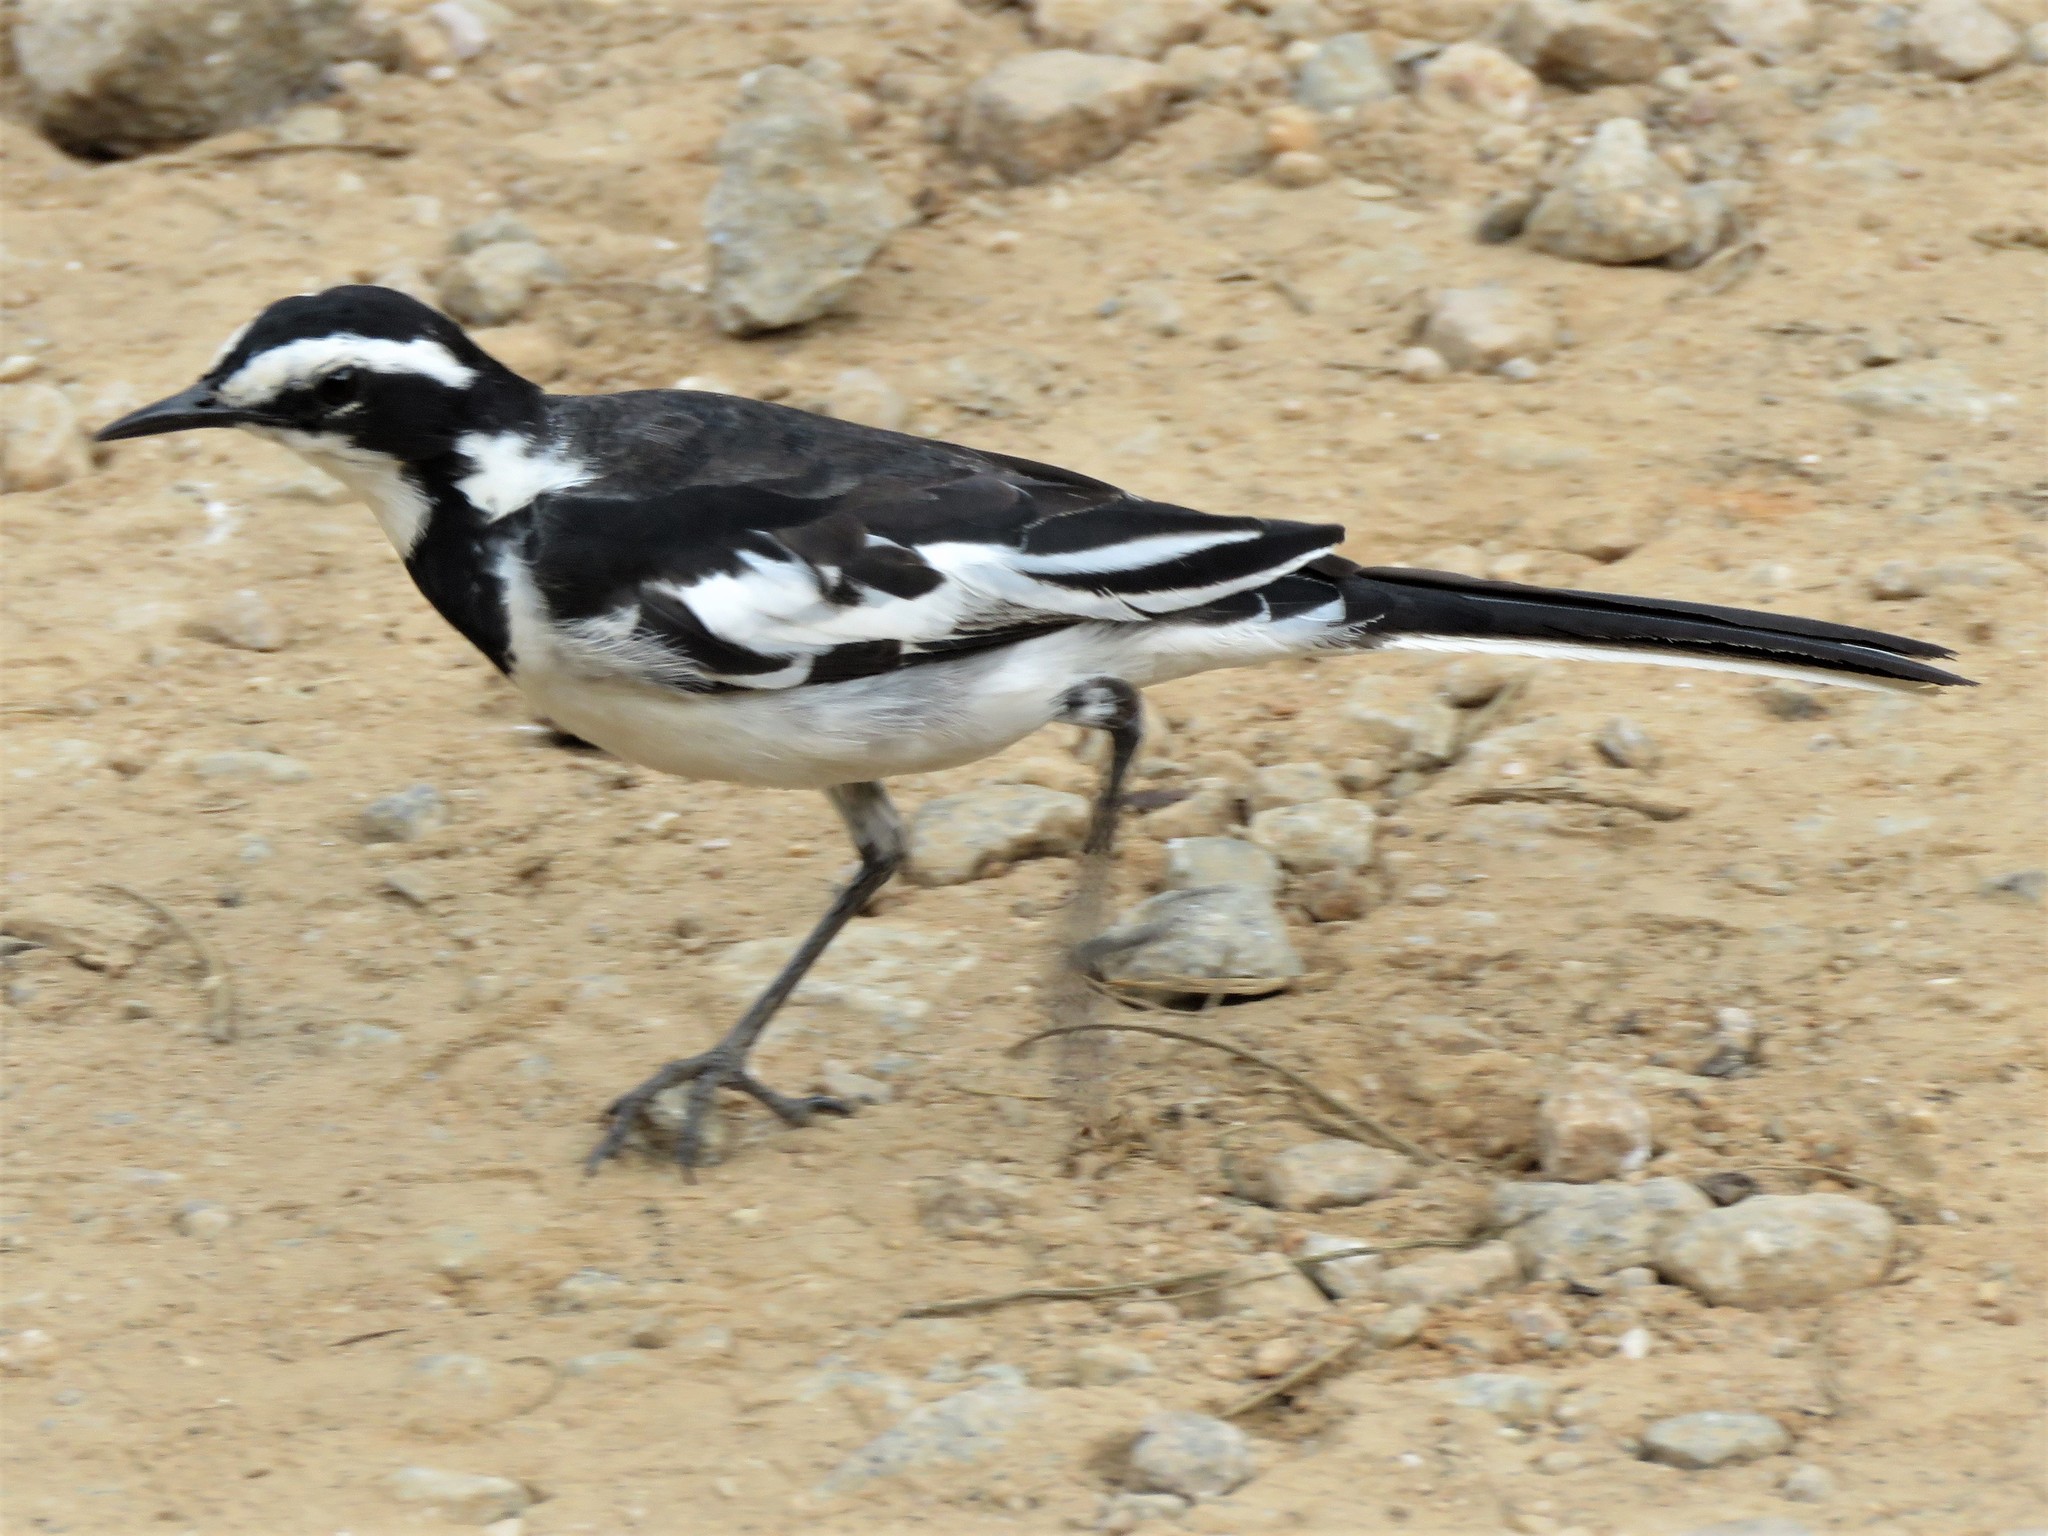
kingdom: Animalia
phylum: Chordata
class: Aves
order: Passeriformes
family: Motacillidae
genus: Motacilla
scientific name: Motacilla aguimp
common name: African pied wagtail
